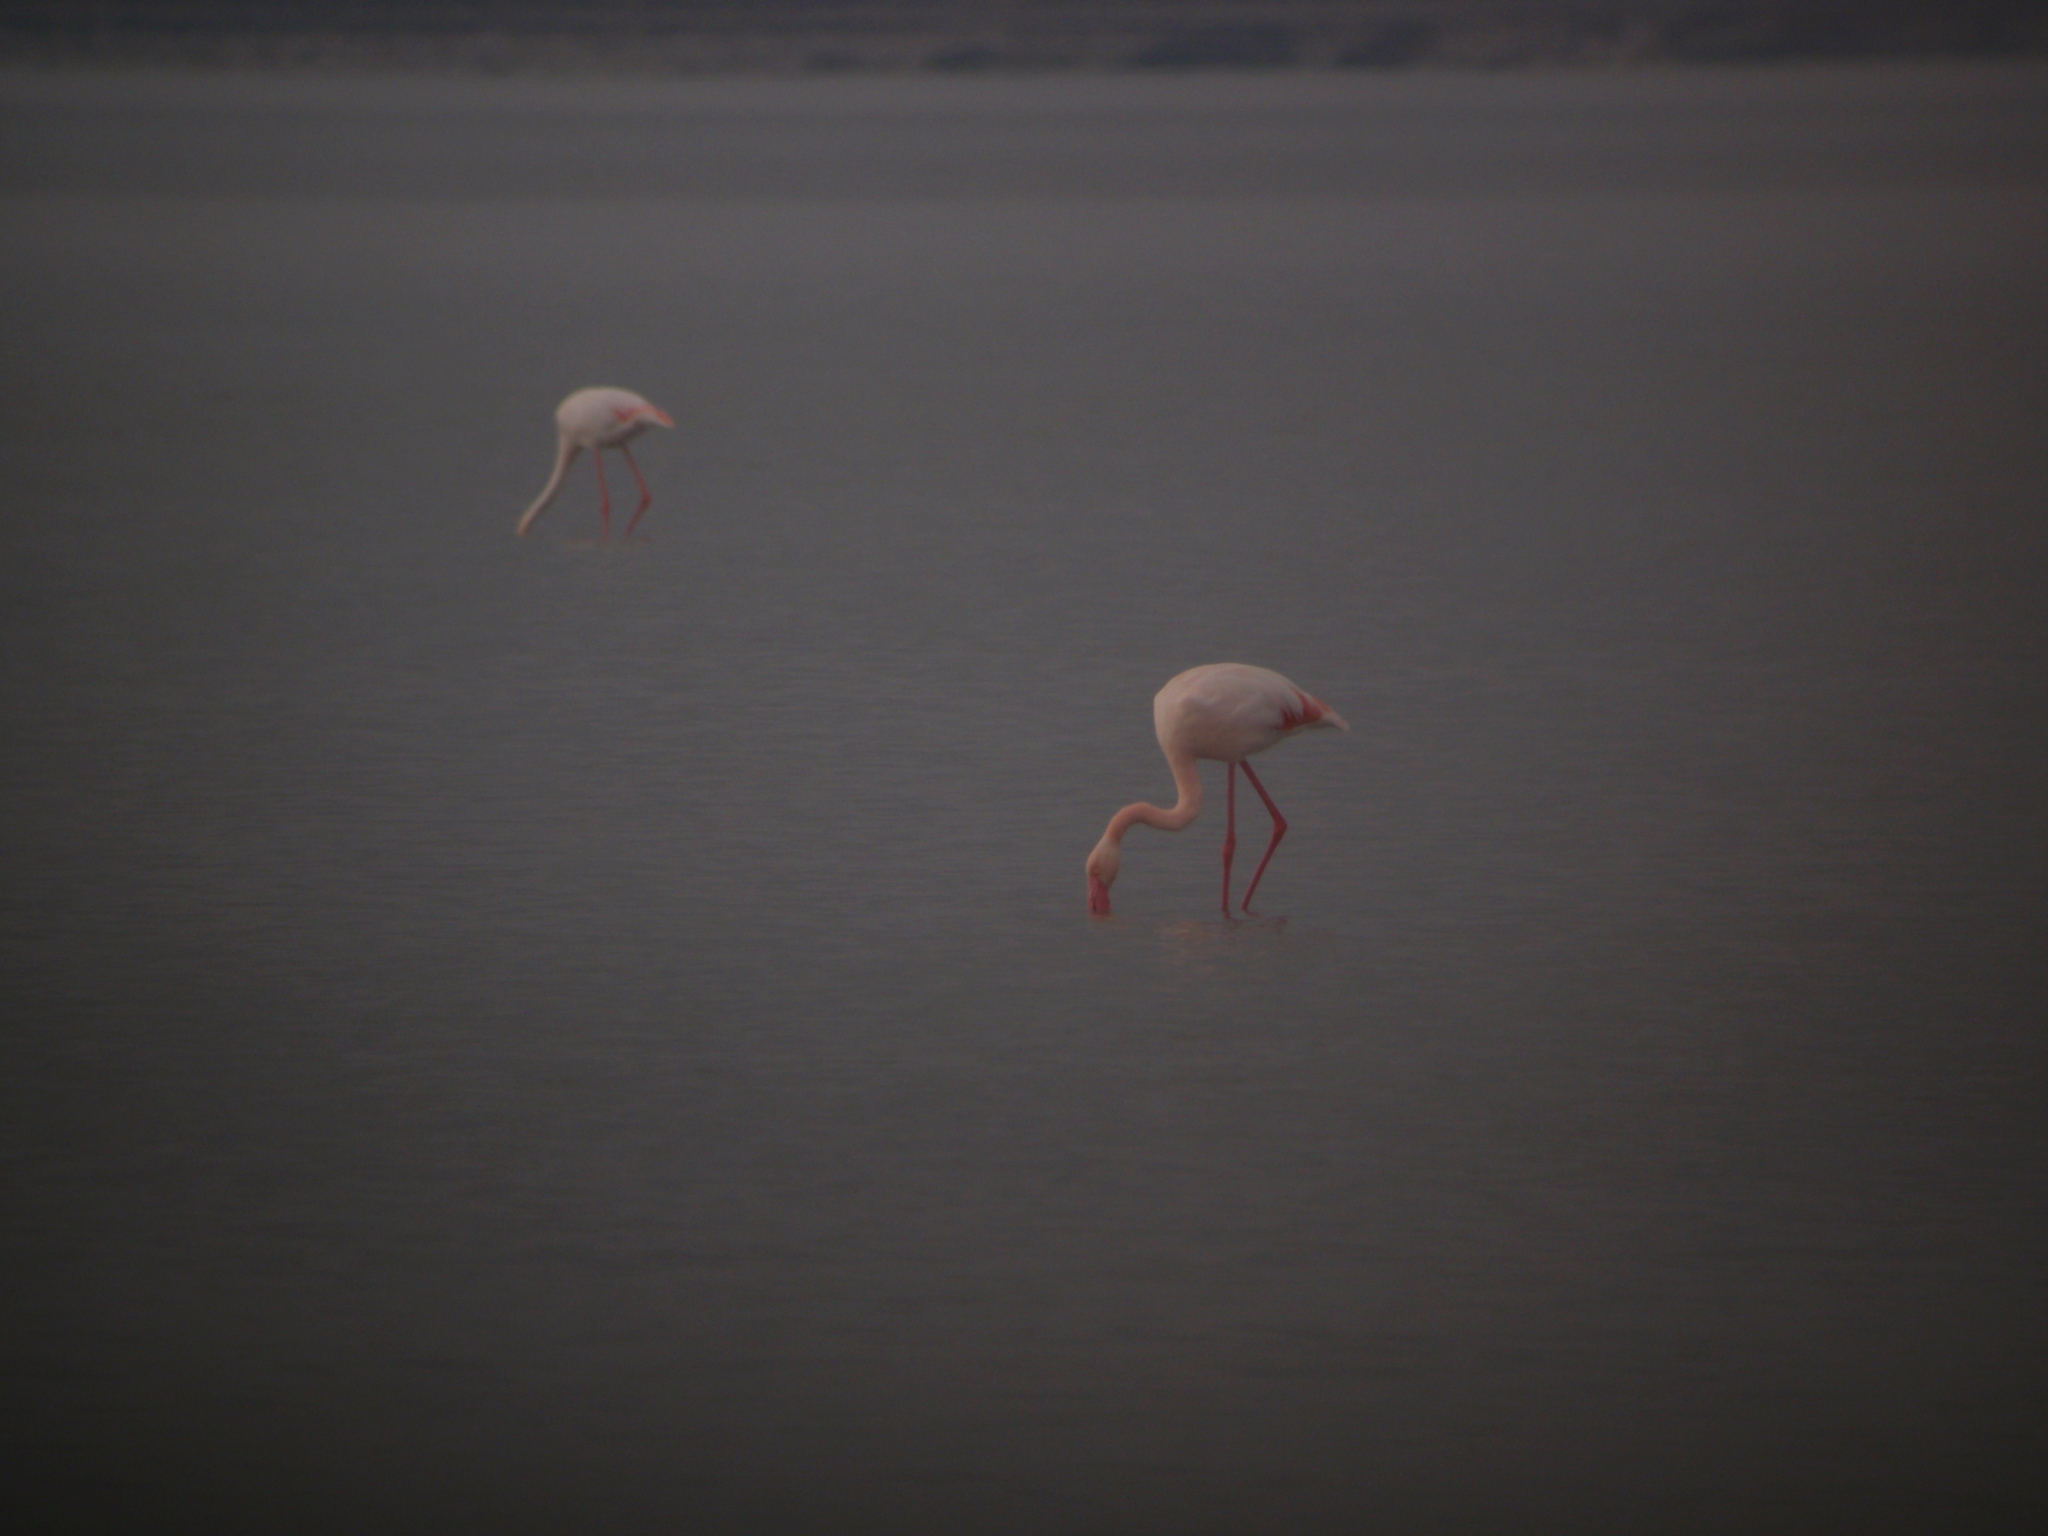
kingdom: Animalia
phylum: Chordata
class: Aves
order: Phoenicopteriformes
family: Phoenicopteridae
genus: Phoenicopterus
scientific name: Phoenicopterus roseus
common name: Greater flamingo
